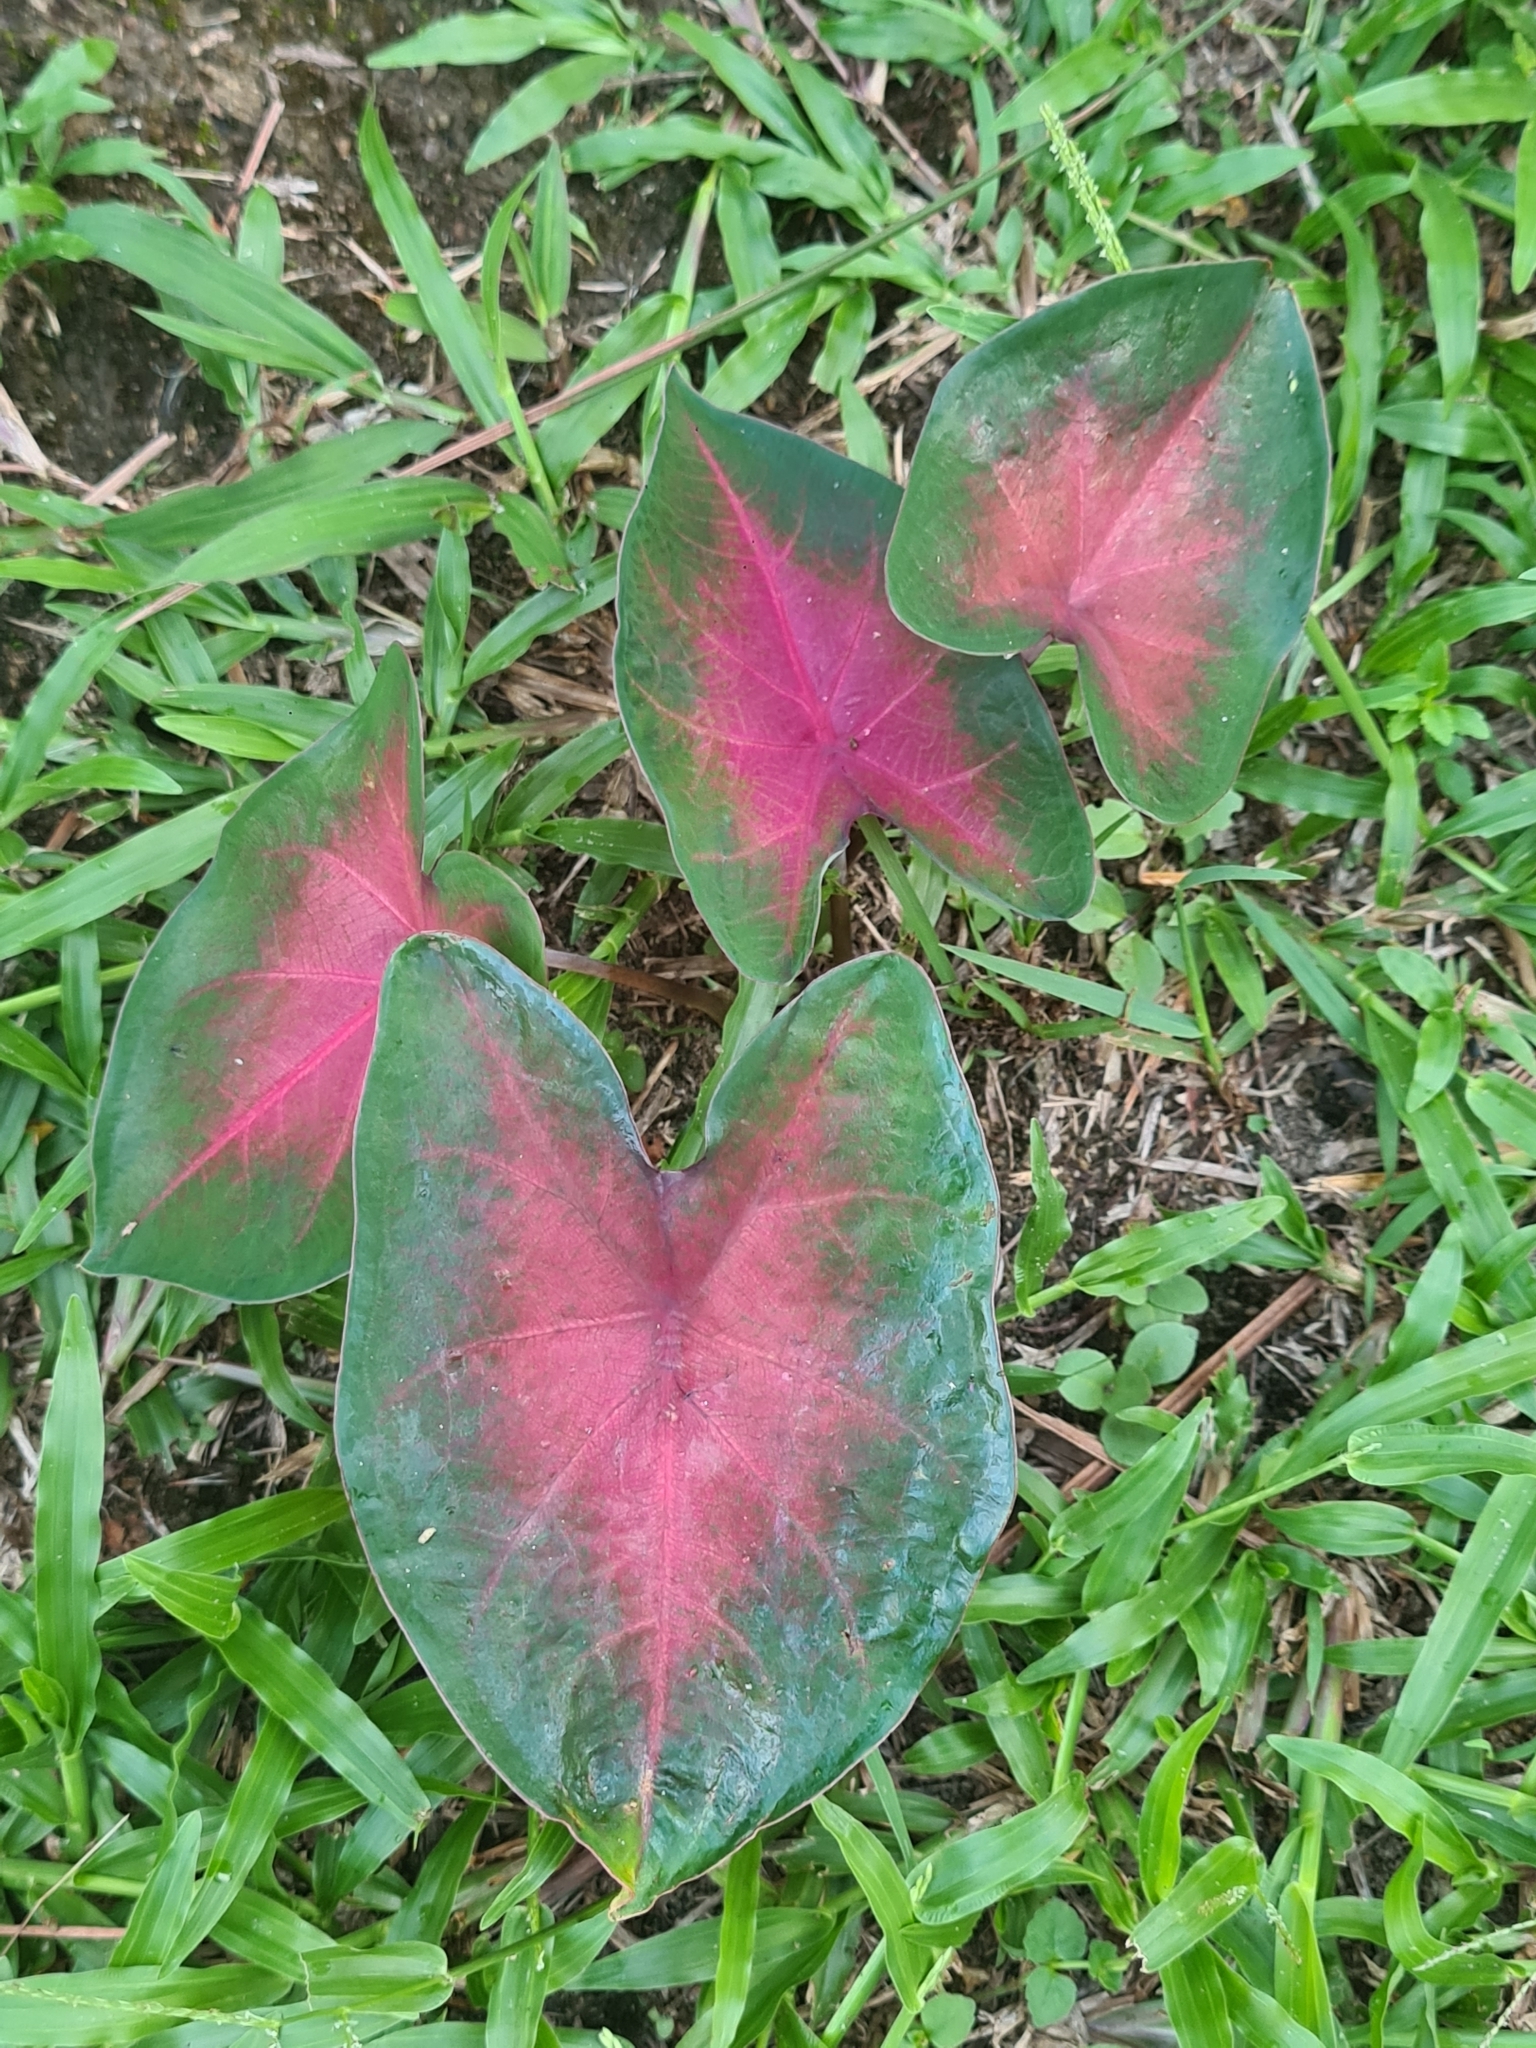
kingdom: Plantae
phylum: Tracheophyta
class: Liliopsida
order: Alismatales
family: Araceae
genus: Caladium
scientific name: Caladium bicolor
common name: Artist's pallet
